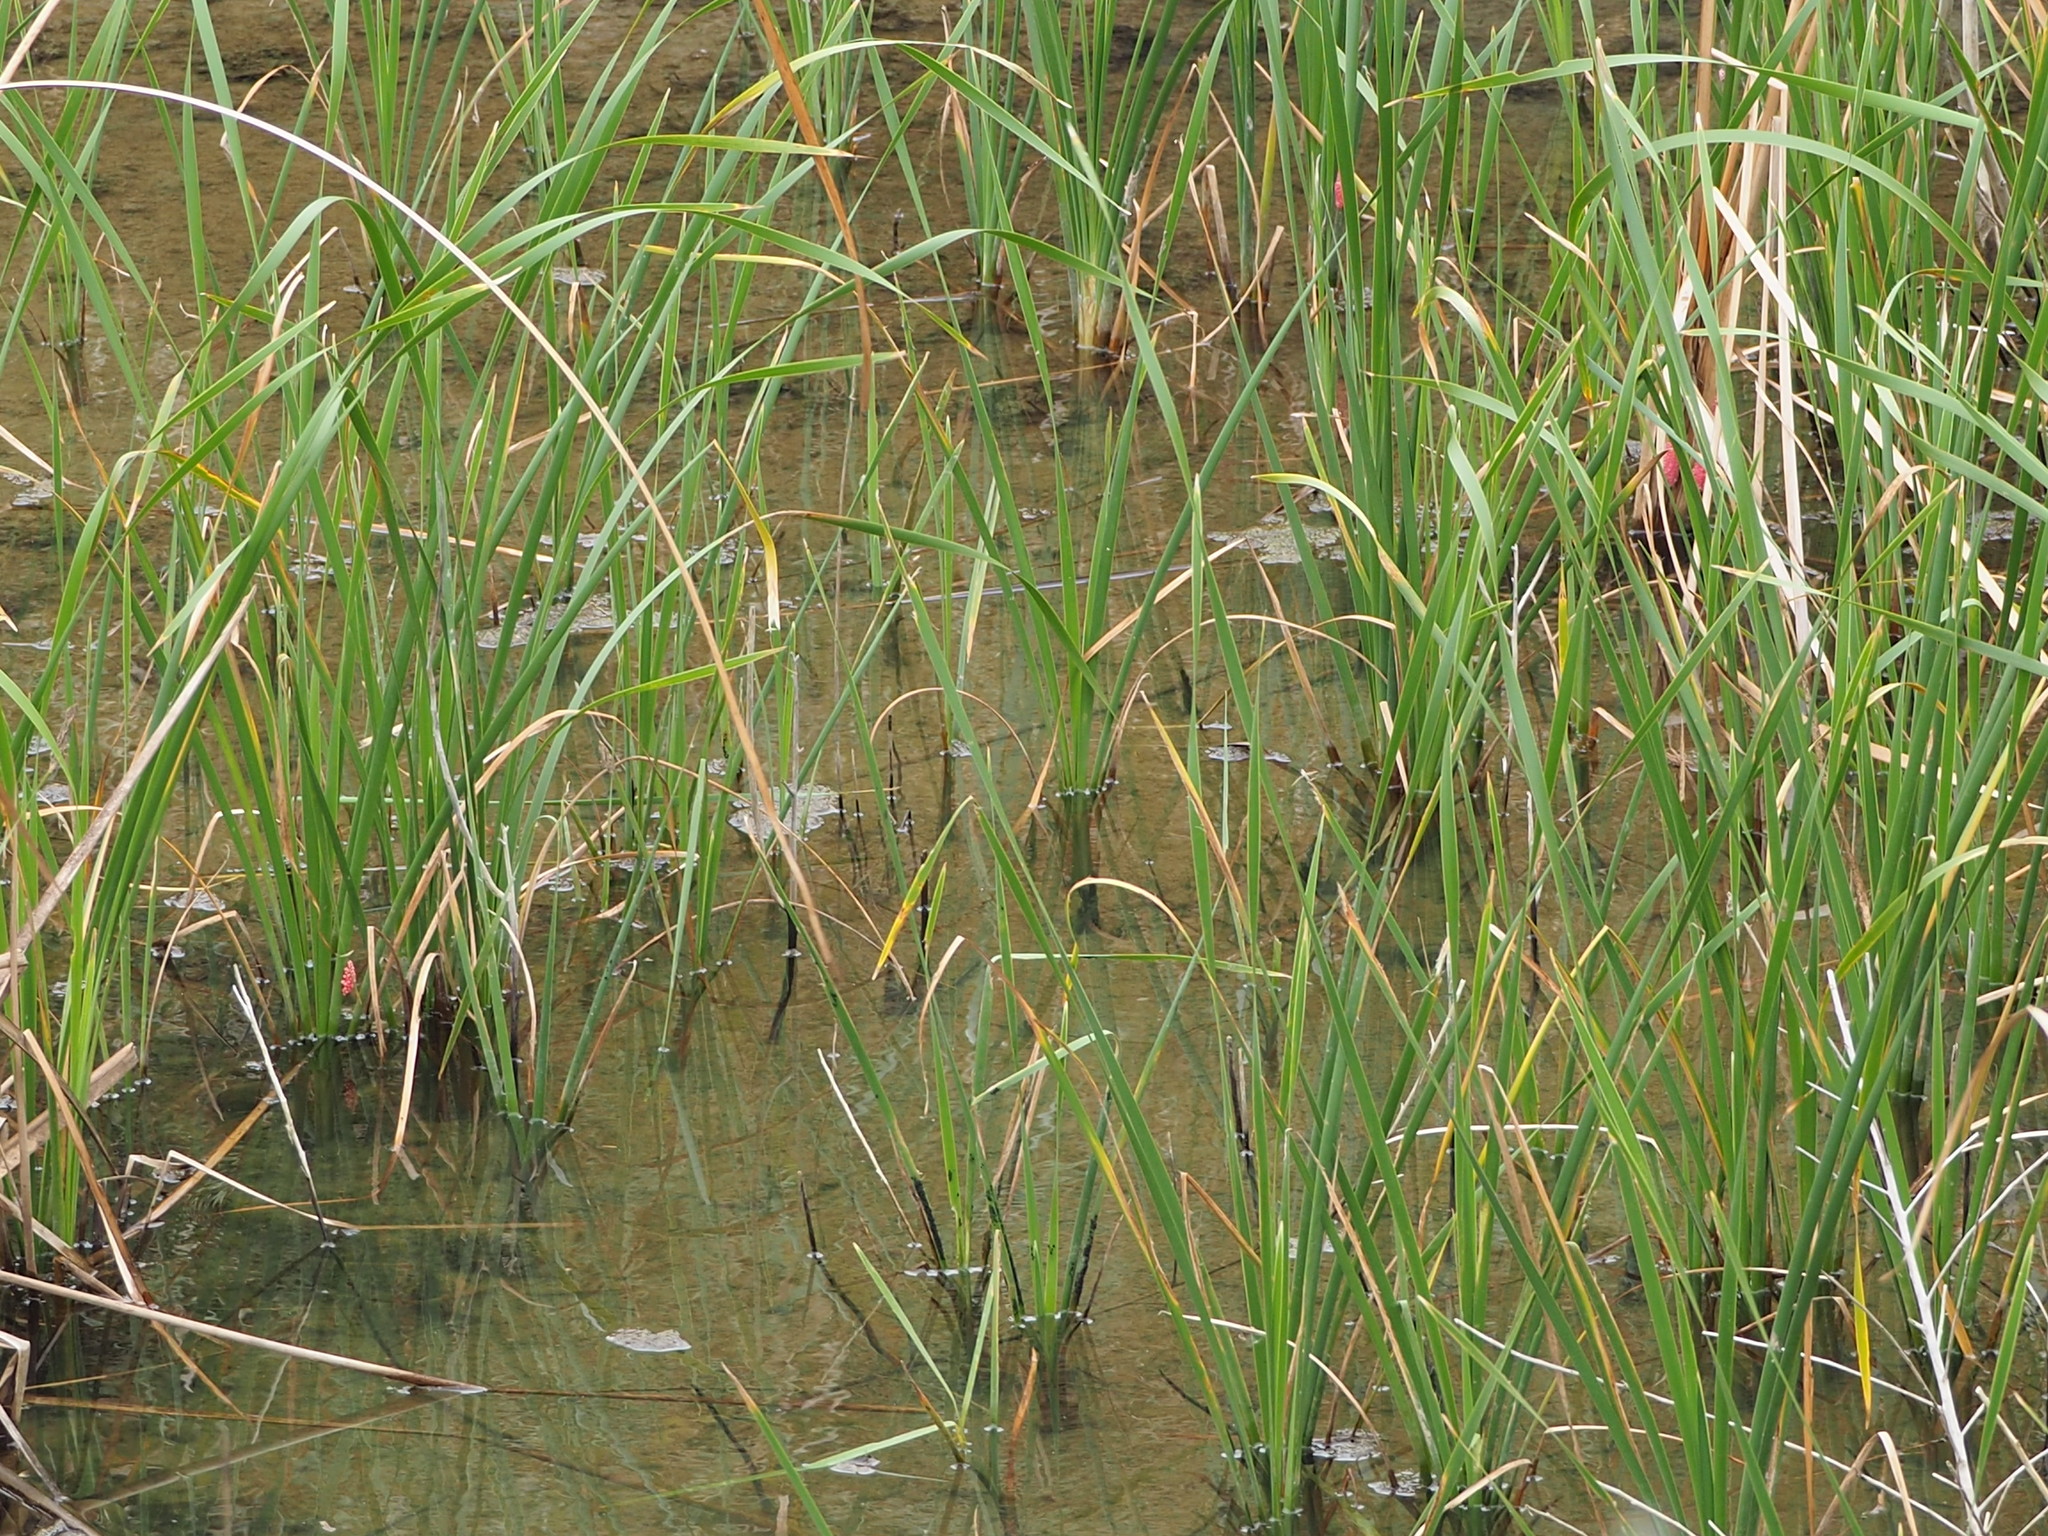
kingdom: Plantae
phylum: Tracheophyta
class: Liliopsida
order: Poales
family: Typhaceae
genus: Typha
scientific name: Typha orientalis
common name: Bullrush
